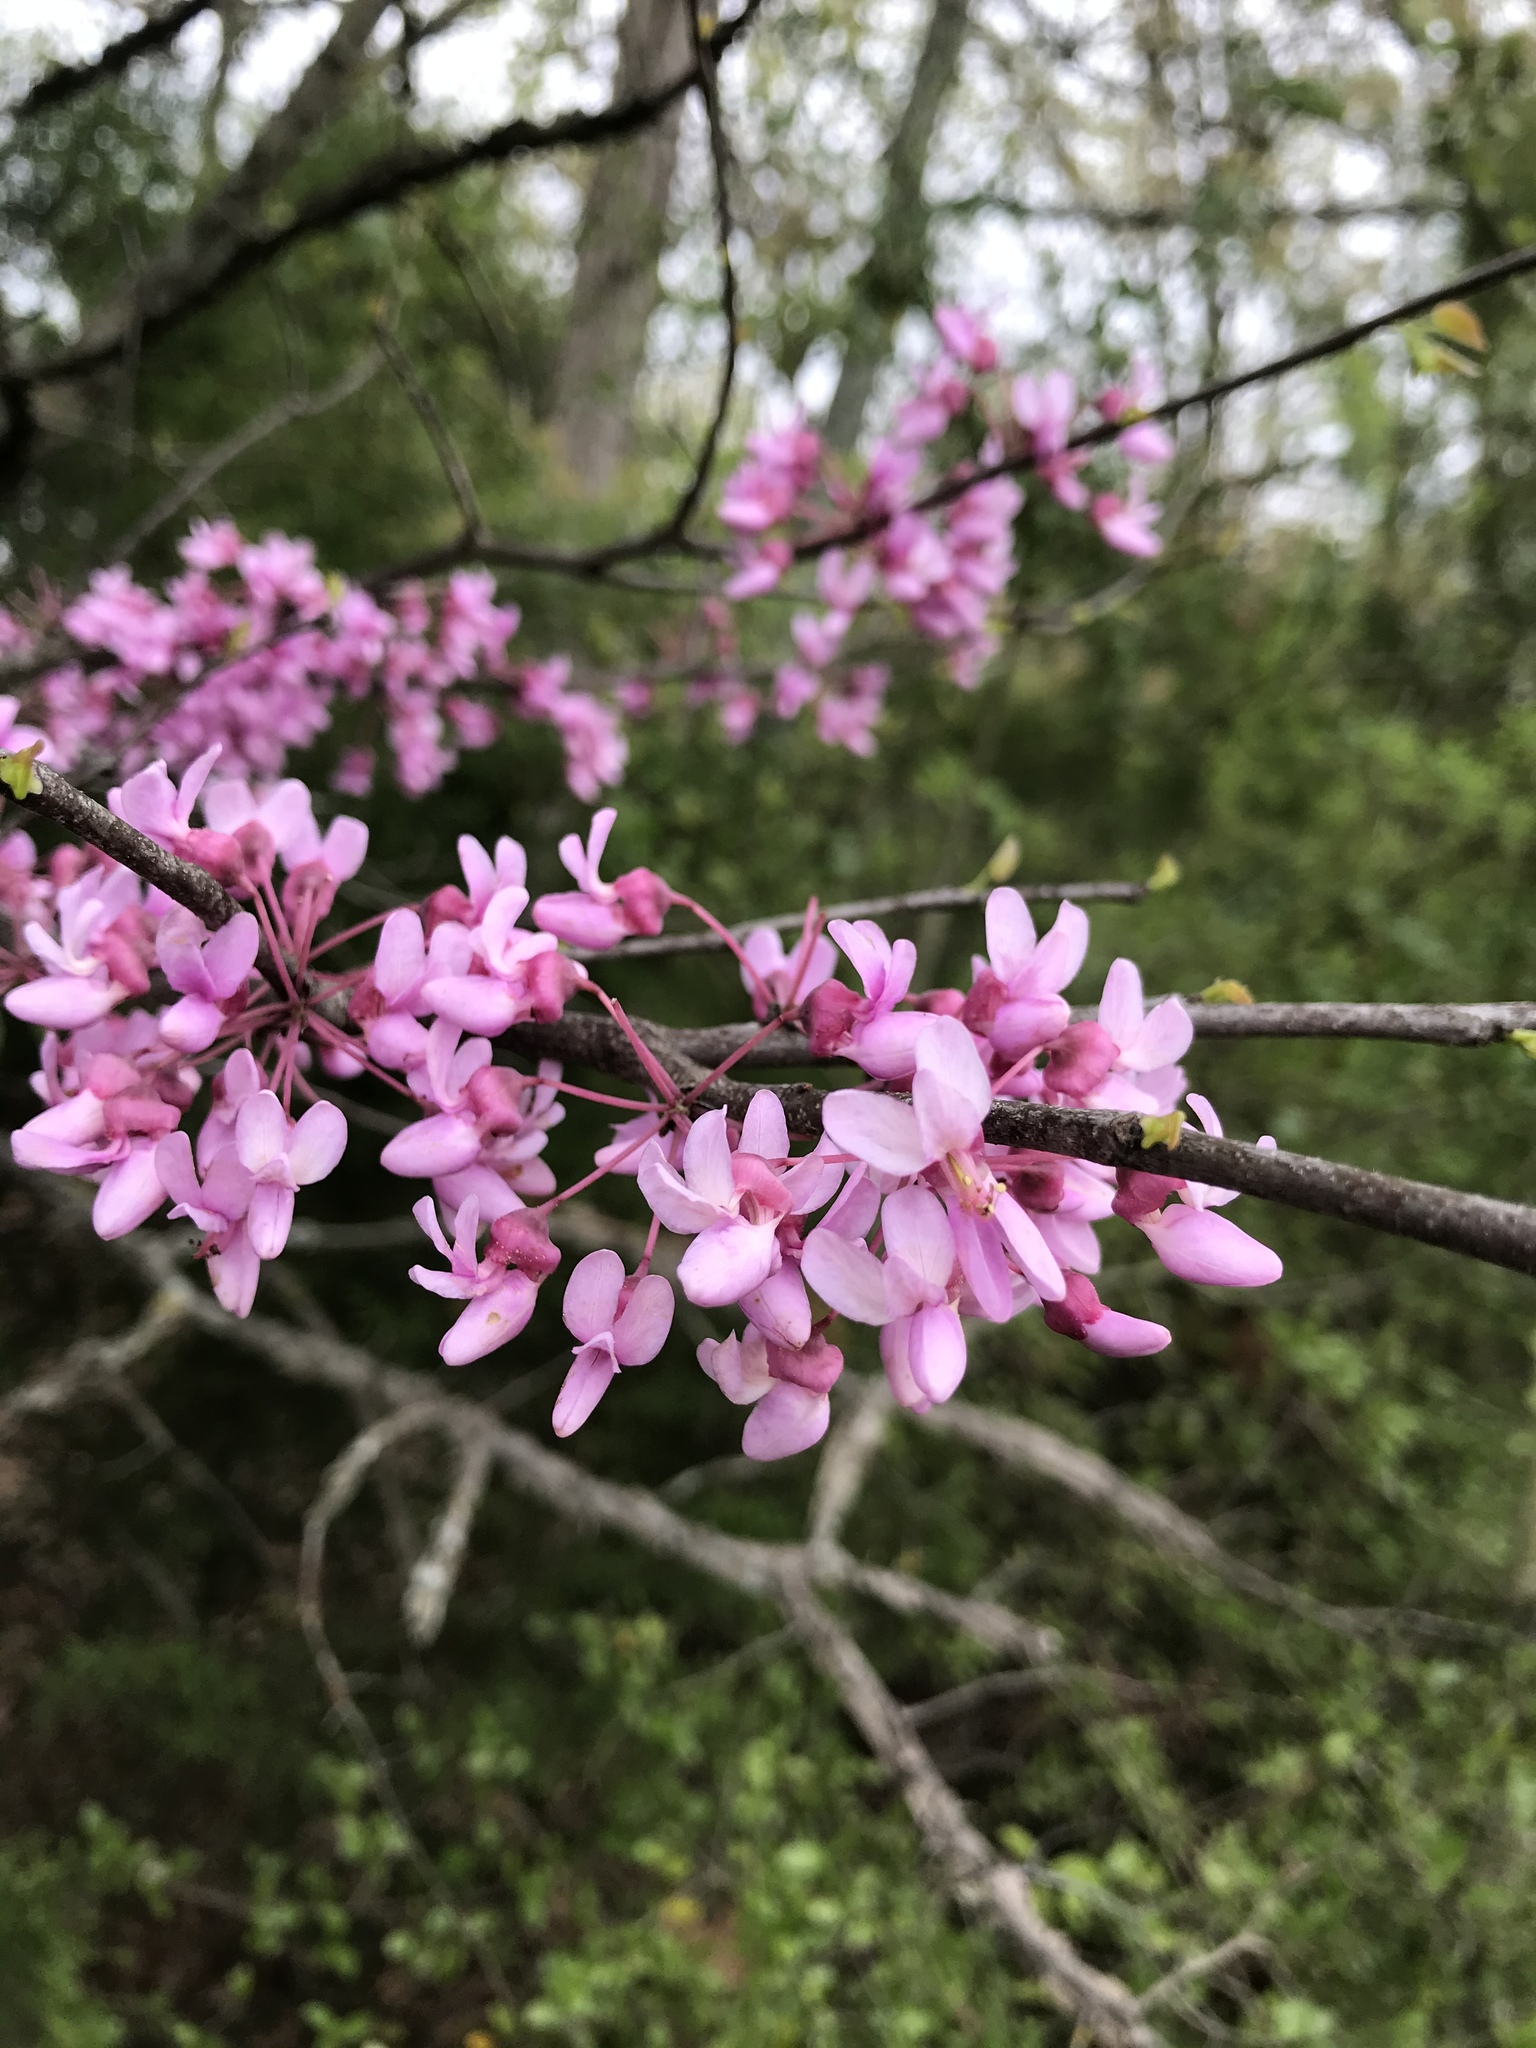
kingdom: Plantae
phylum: Tracheophyta
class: Magnoliopsida
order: Fabales
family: Fabaceae
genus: Cercis
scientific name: Cercis canadensis
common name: Eastern redbud
